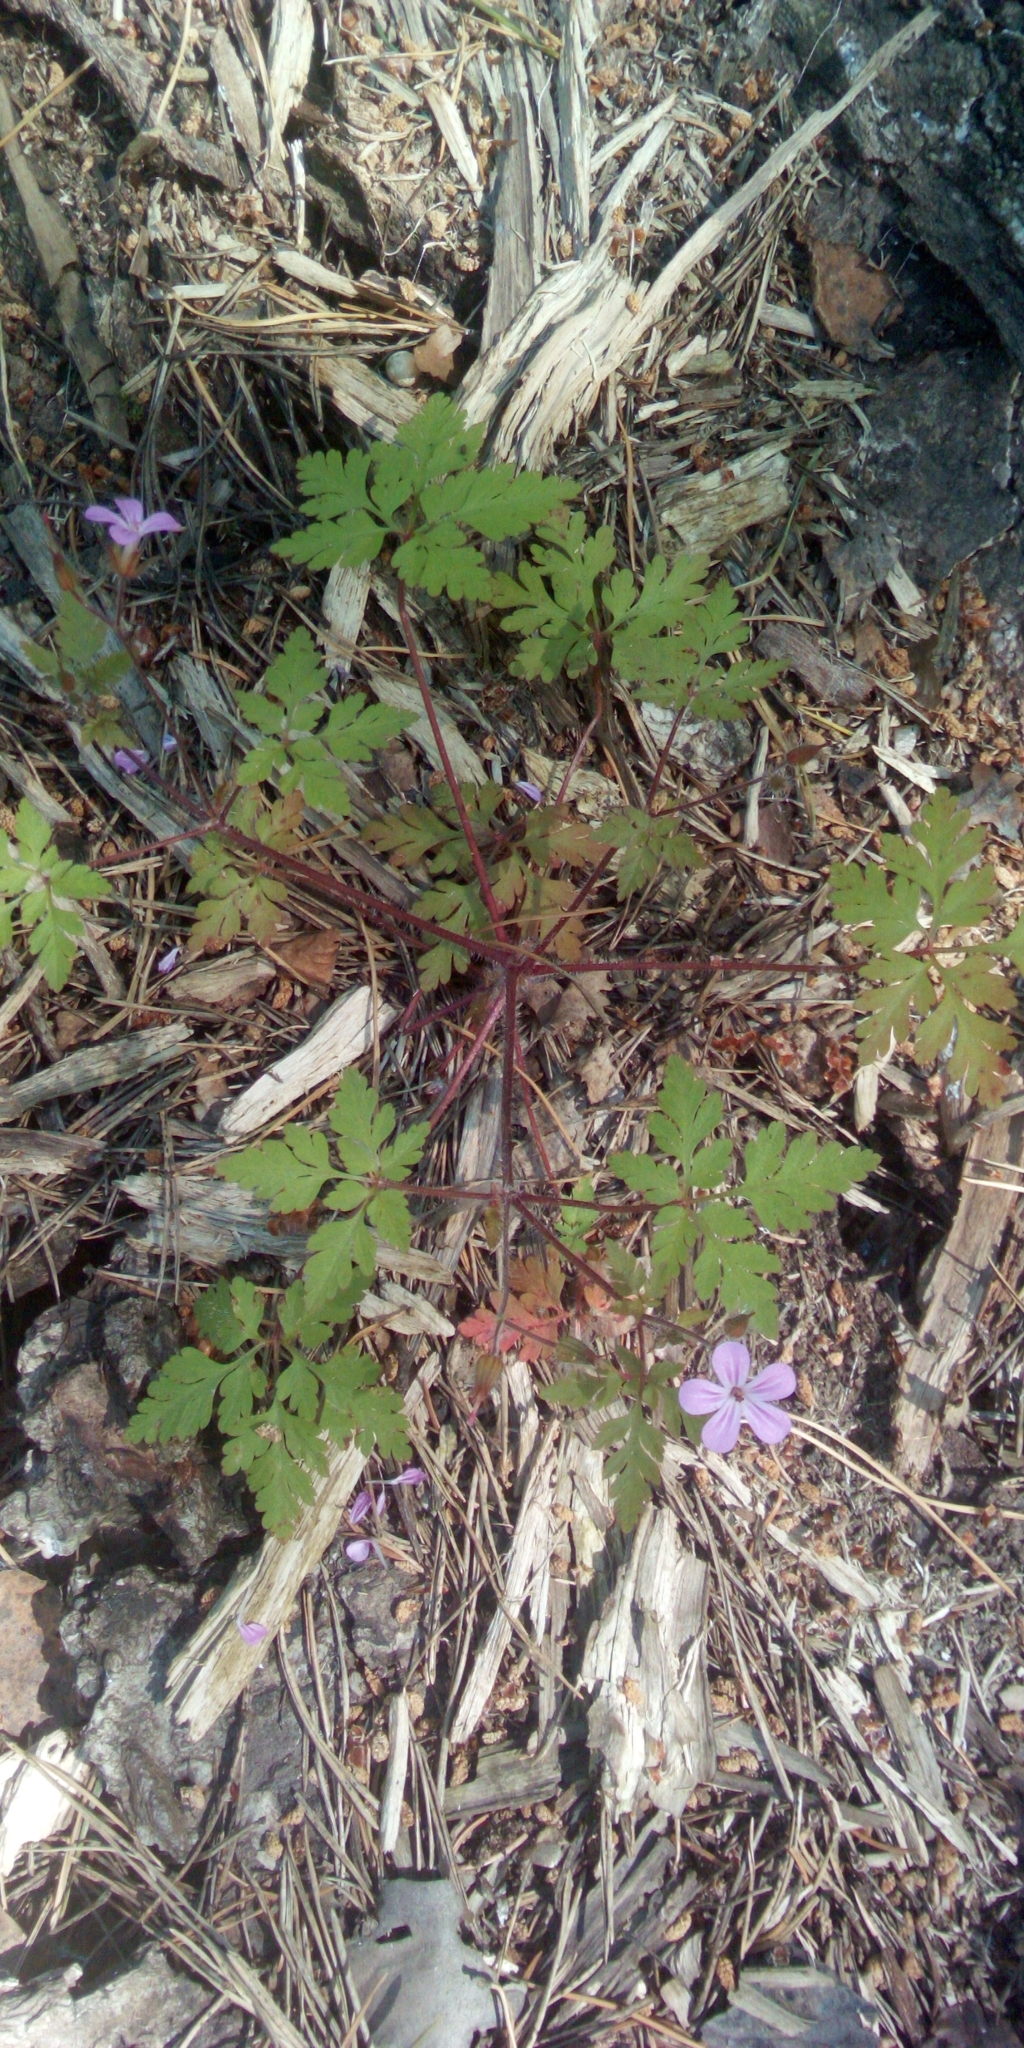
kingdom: Plantae
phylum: Tracheophyta
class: Magnoliopsida
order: Geraniales
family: Geraniaceae
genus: Geranium
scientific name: Geranium robertianum
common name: Herb-robert
